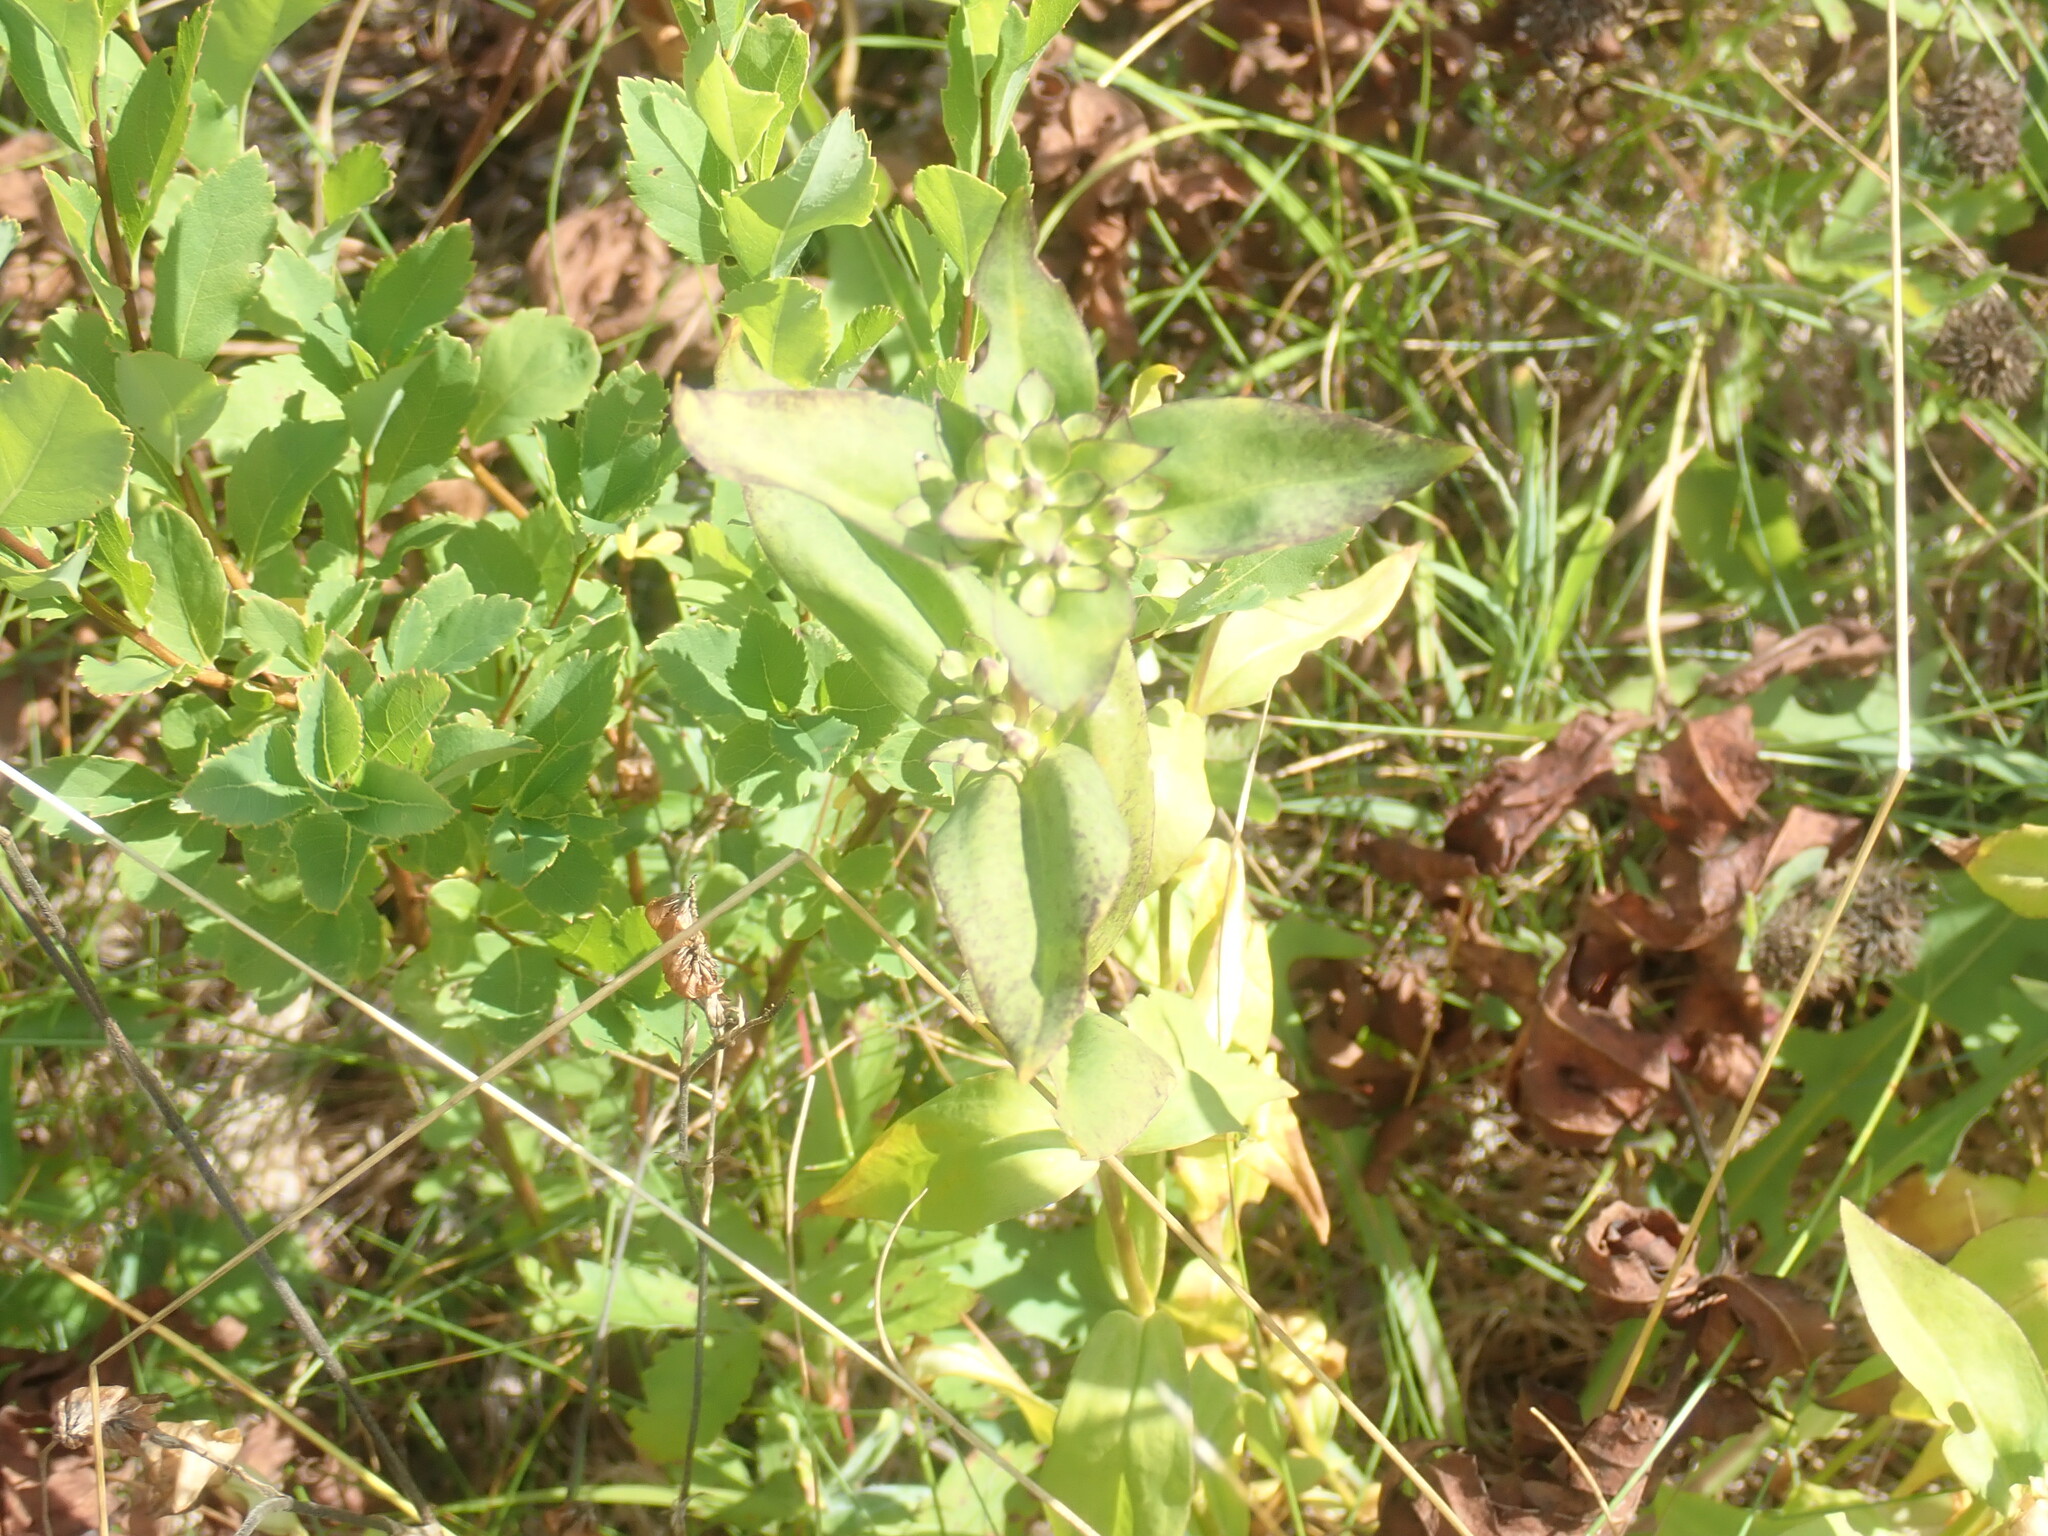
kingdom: Plantae
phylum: Tracheophyta
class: Magnoliopsida
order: Gentianales
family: Gentianaceae
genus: Gentiana
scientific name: Gentiana clausa
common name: Blind gentian
